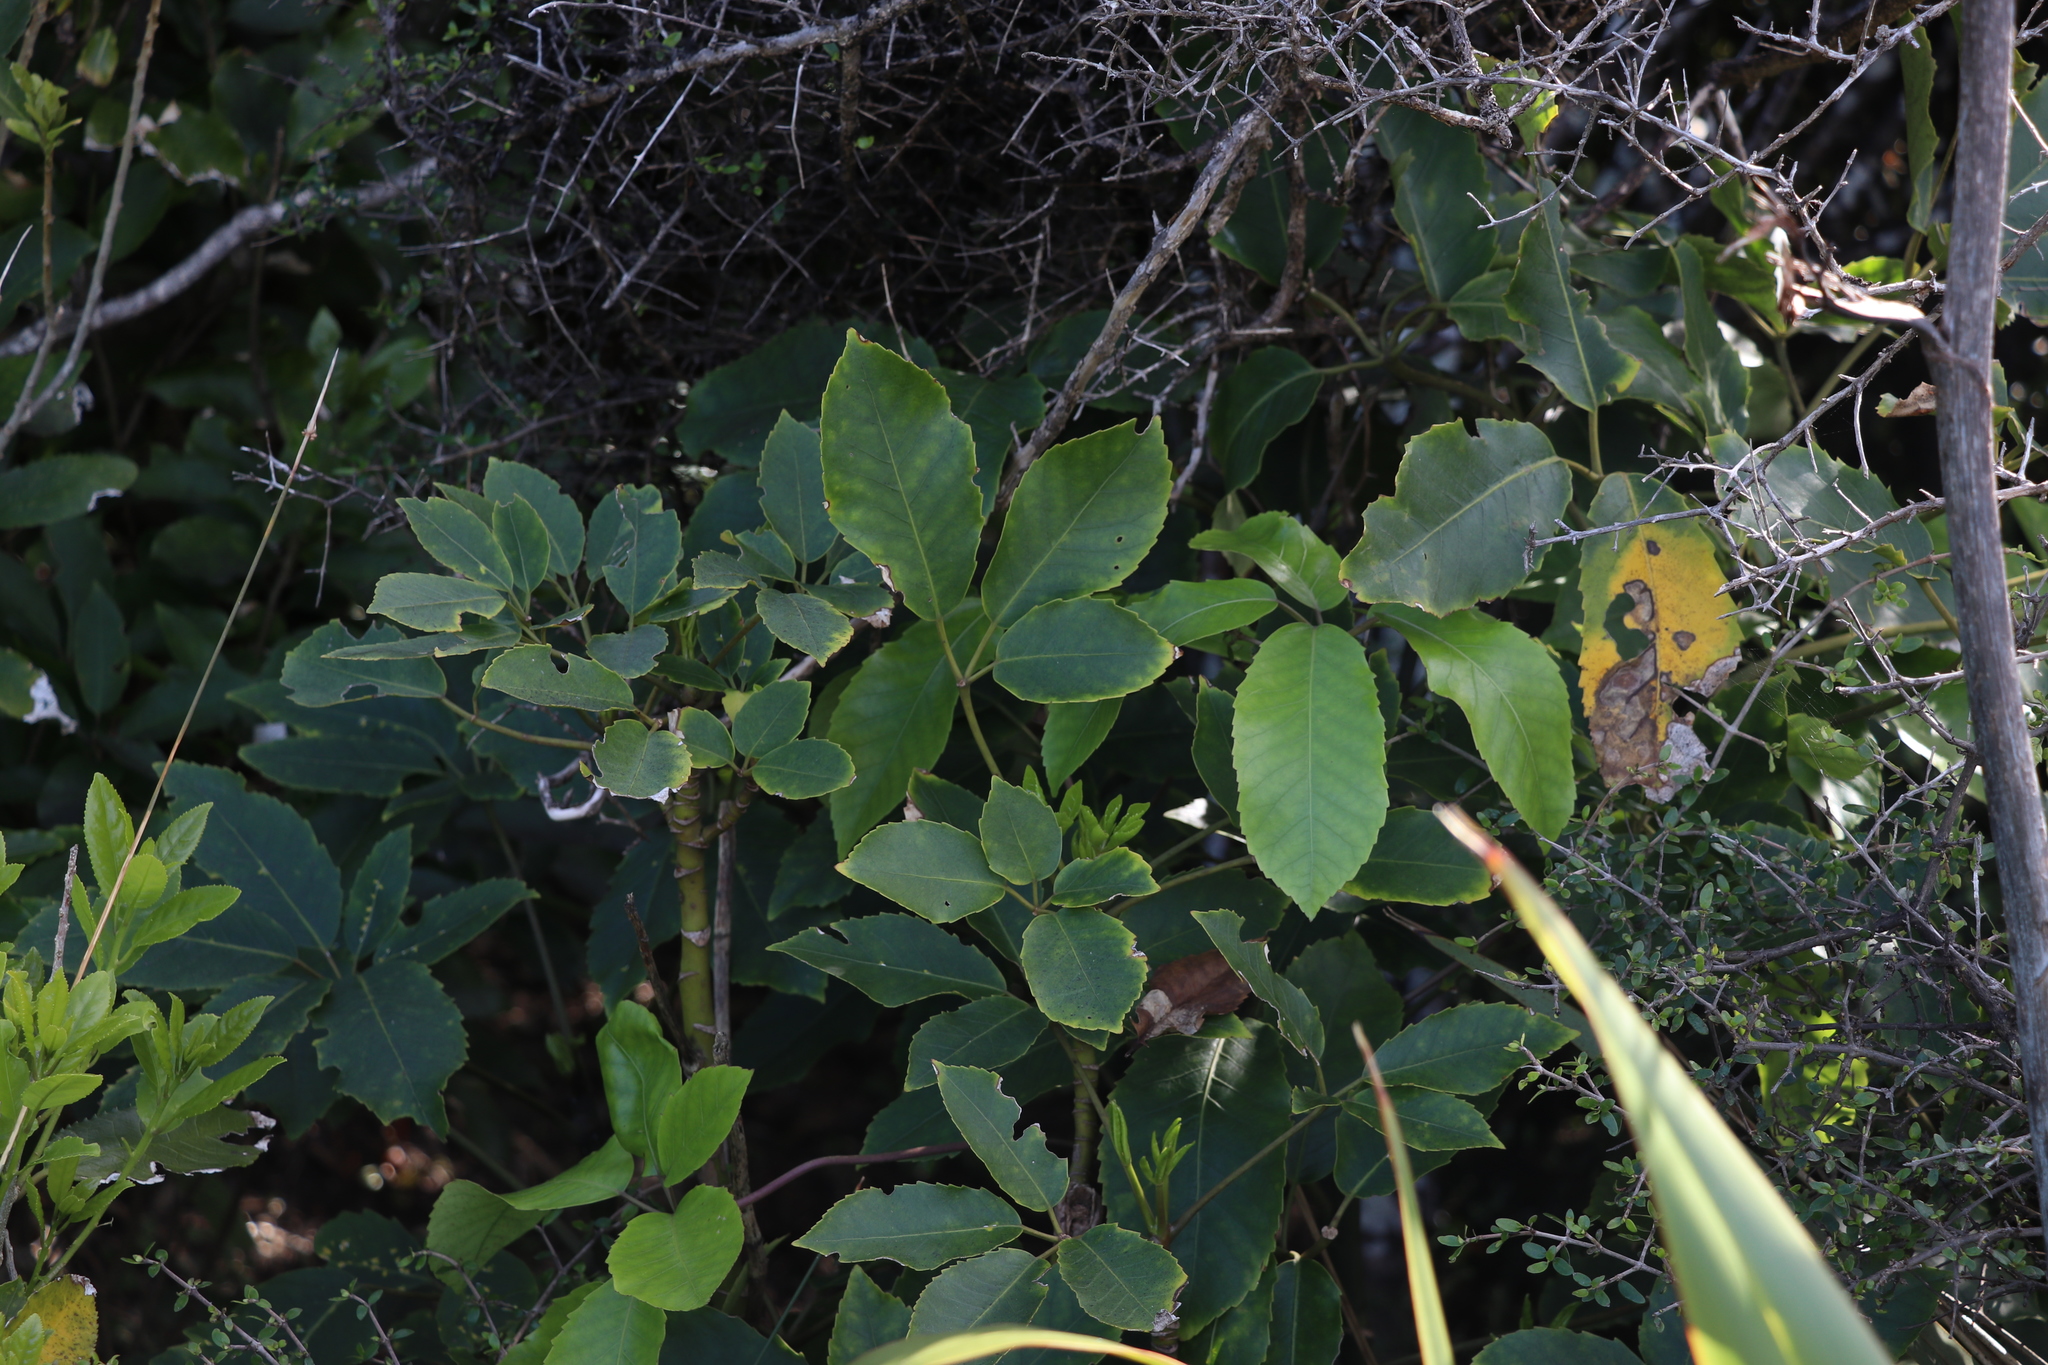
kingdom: Plantae
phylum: Tracheophyta
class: Magnoliopsida
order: Apiales
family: Araliaceae
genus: Neopanax
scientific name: Neopanax arboreus
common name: Five-fingers
